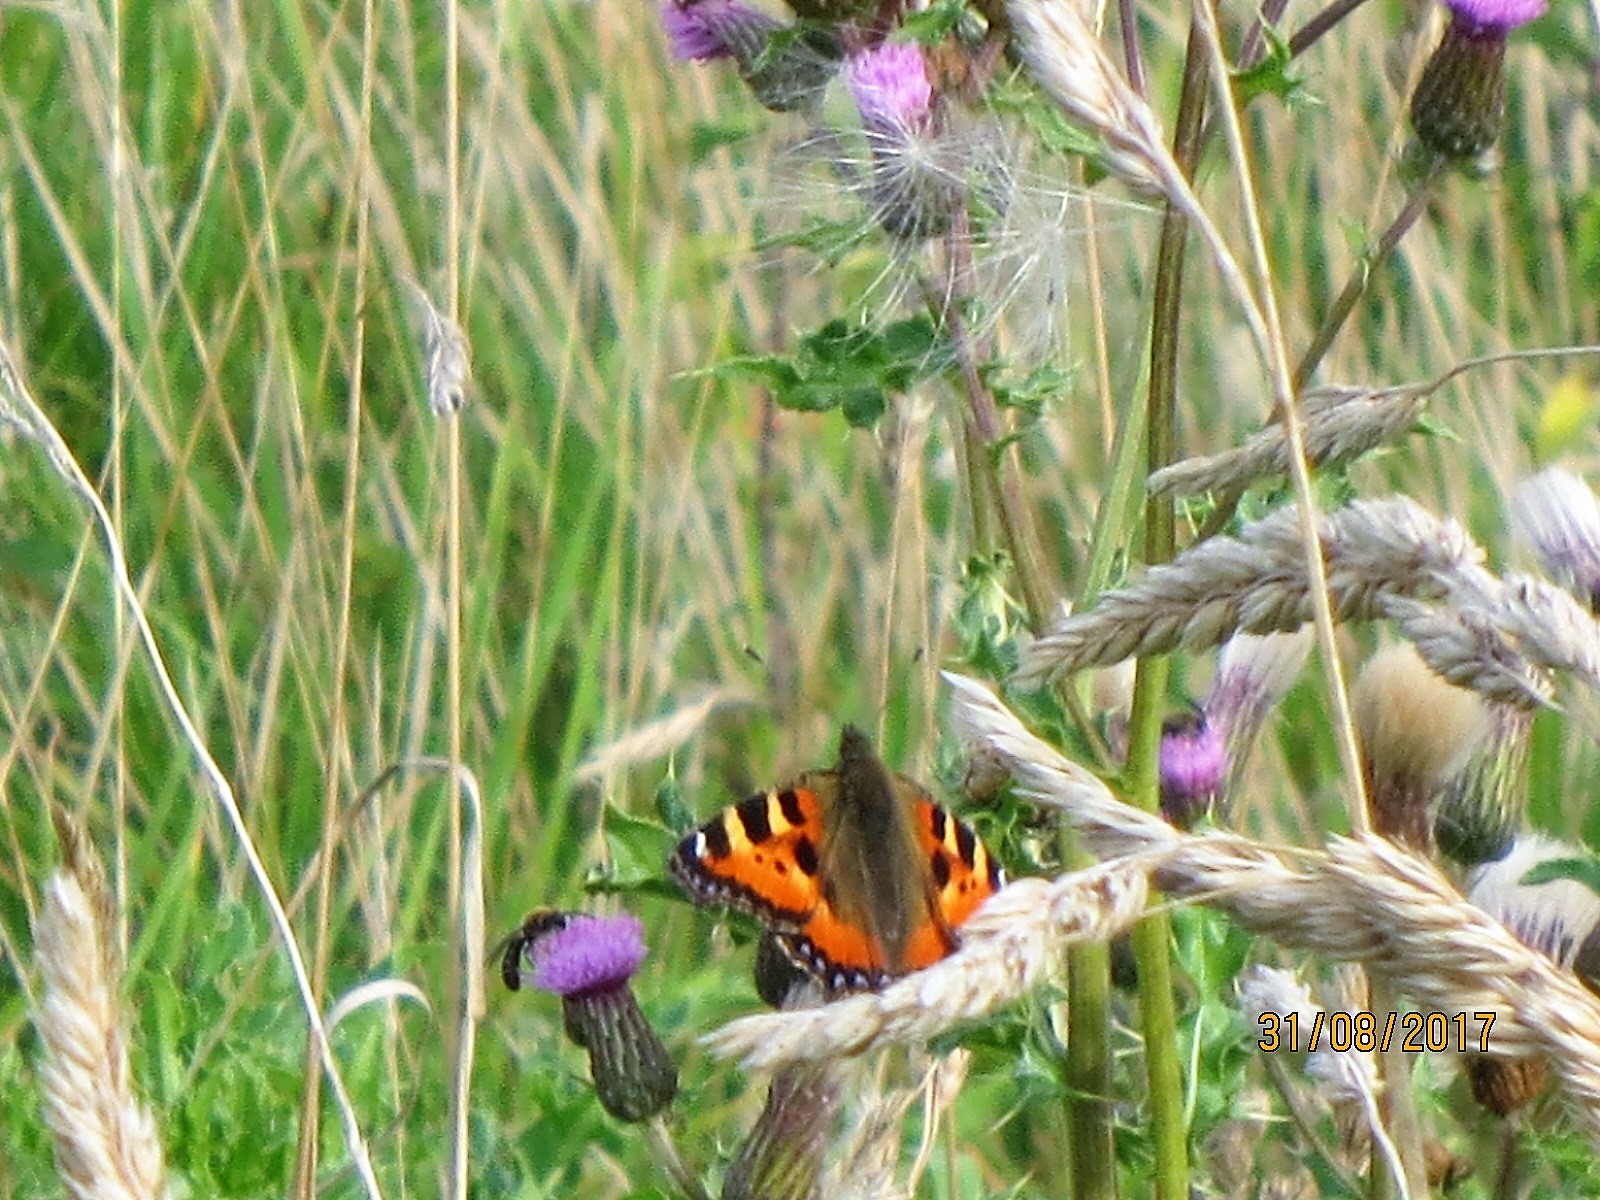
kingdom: Animalia
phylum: Arthropoda
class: Insecta
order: Lepidoptera
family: Nymphalidae
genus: Aglais
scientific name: Aglais urticae
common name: Small tortoiseshell
